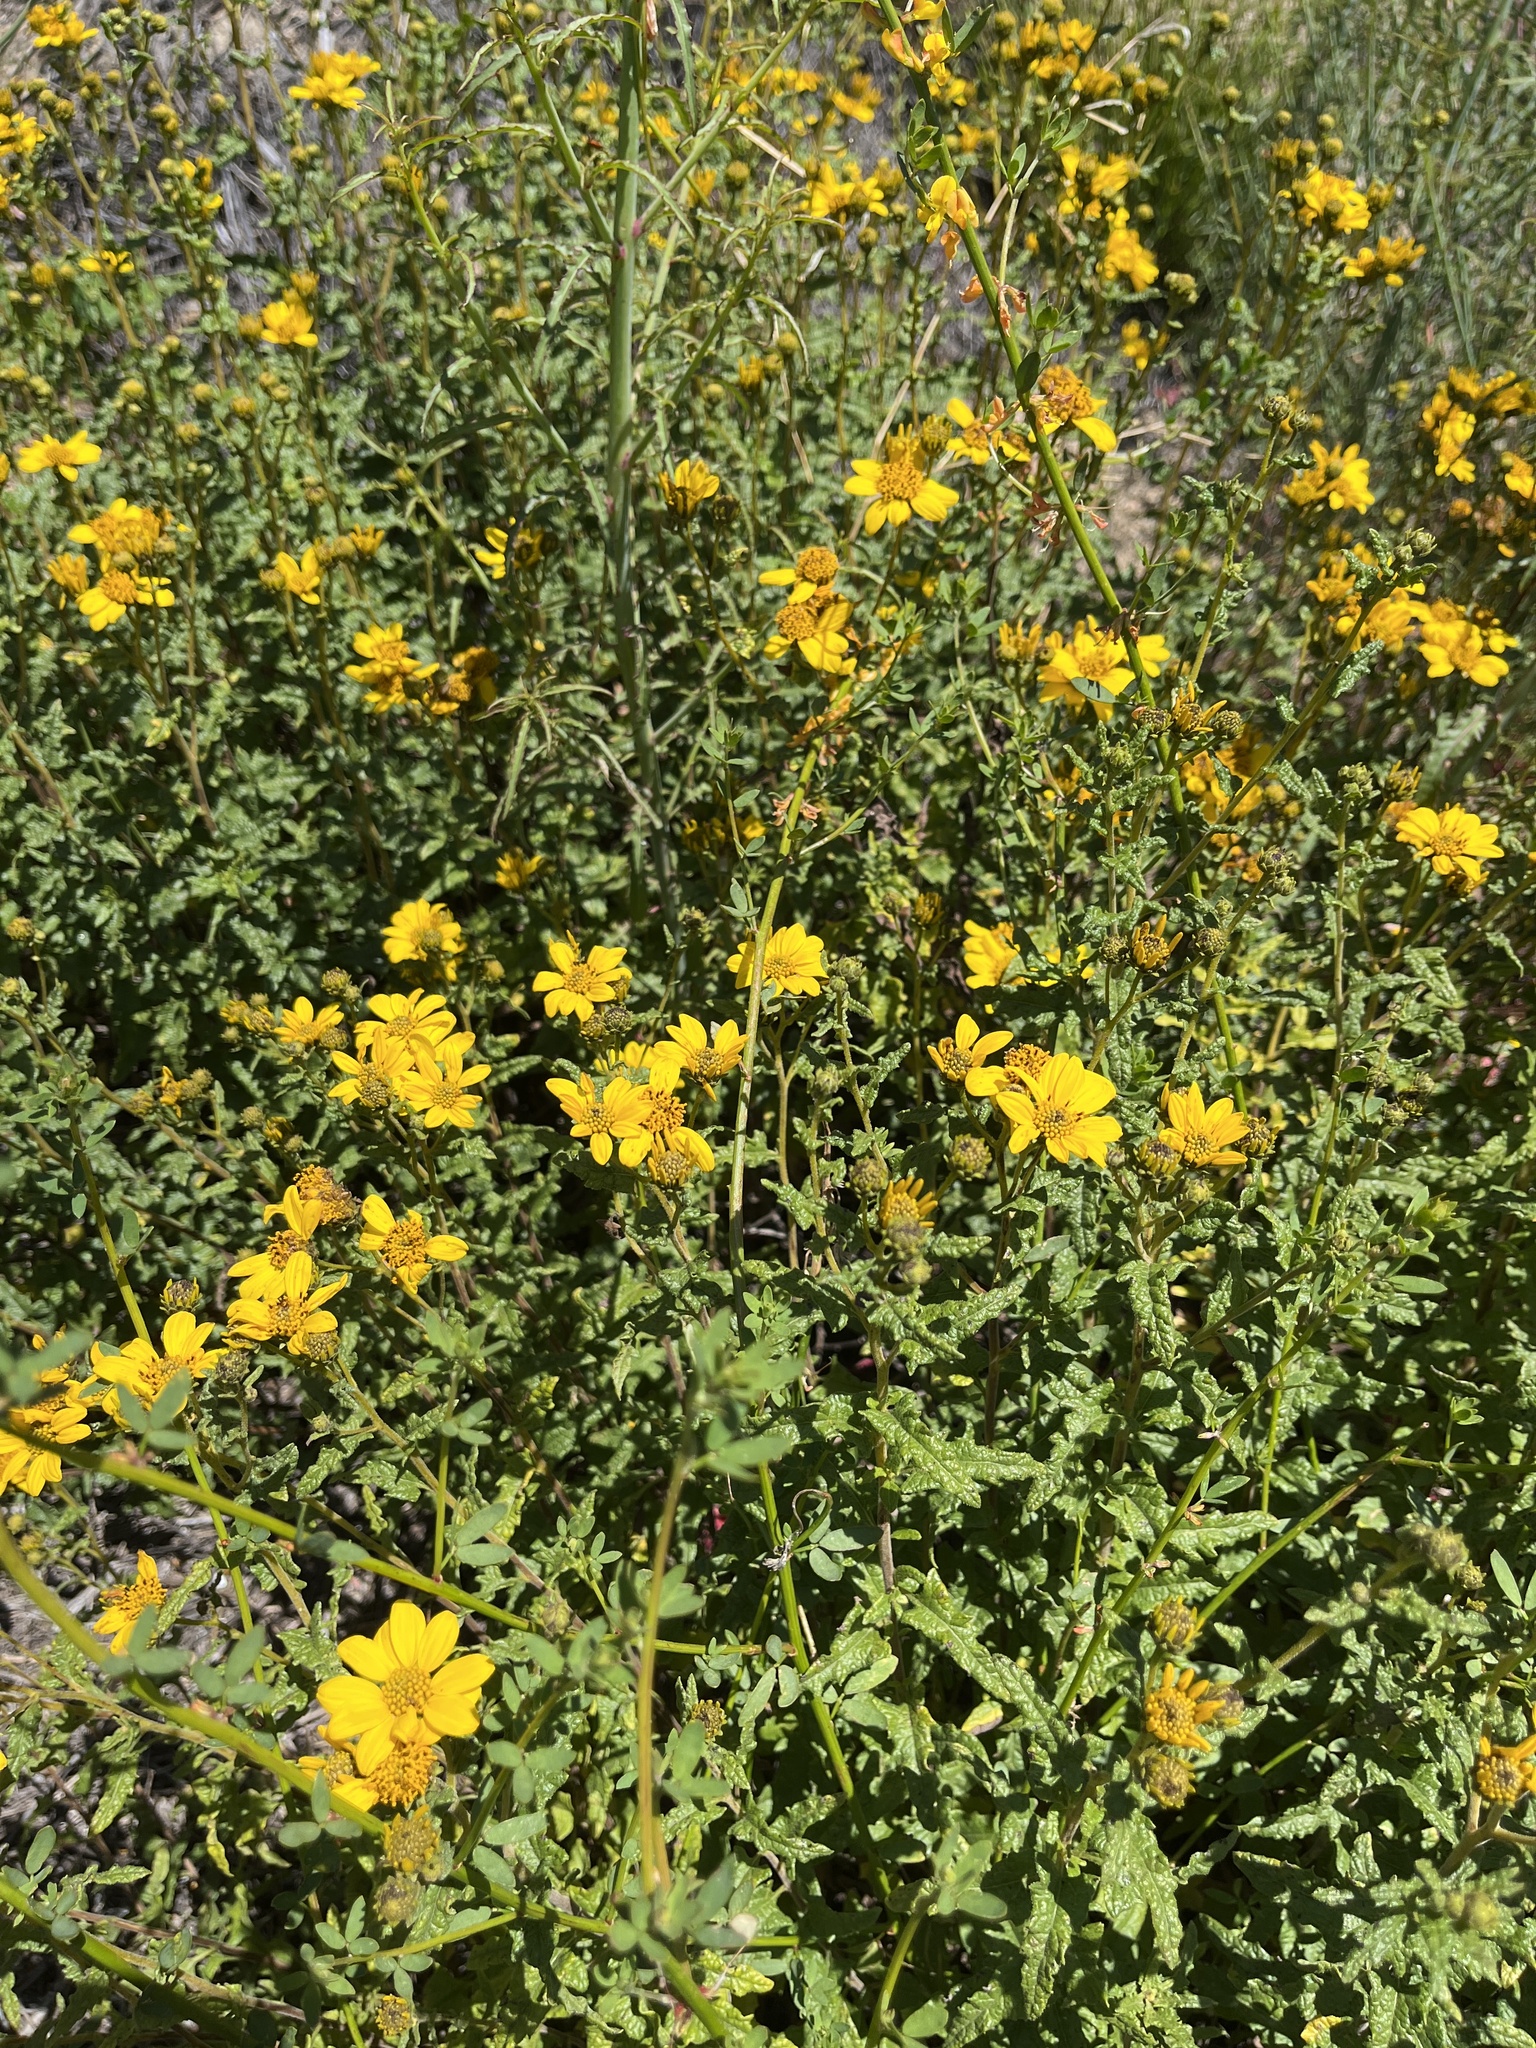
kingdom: Plantae
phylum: Tracheophyta
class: Magnoliopsida
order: Asterales
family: Asteraceae
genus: Bahiopsis
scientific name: Bahiopsis laciniata
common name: San diego county viguiera
